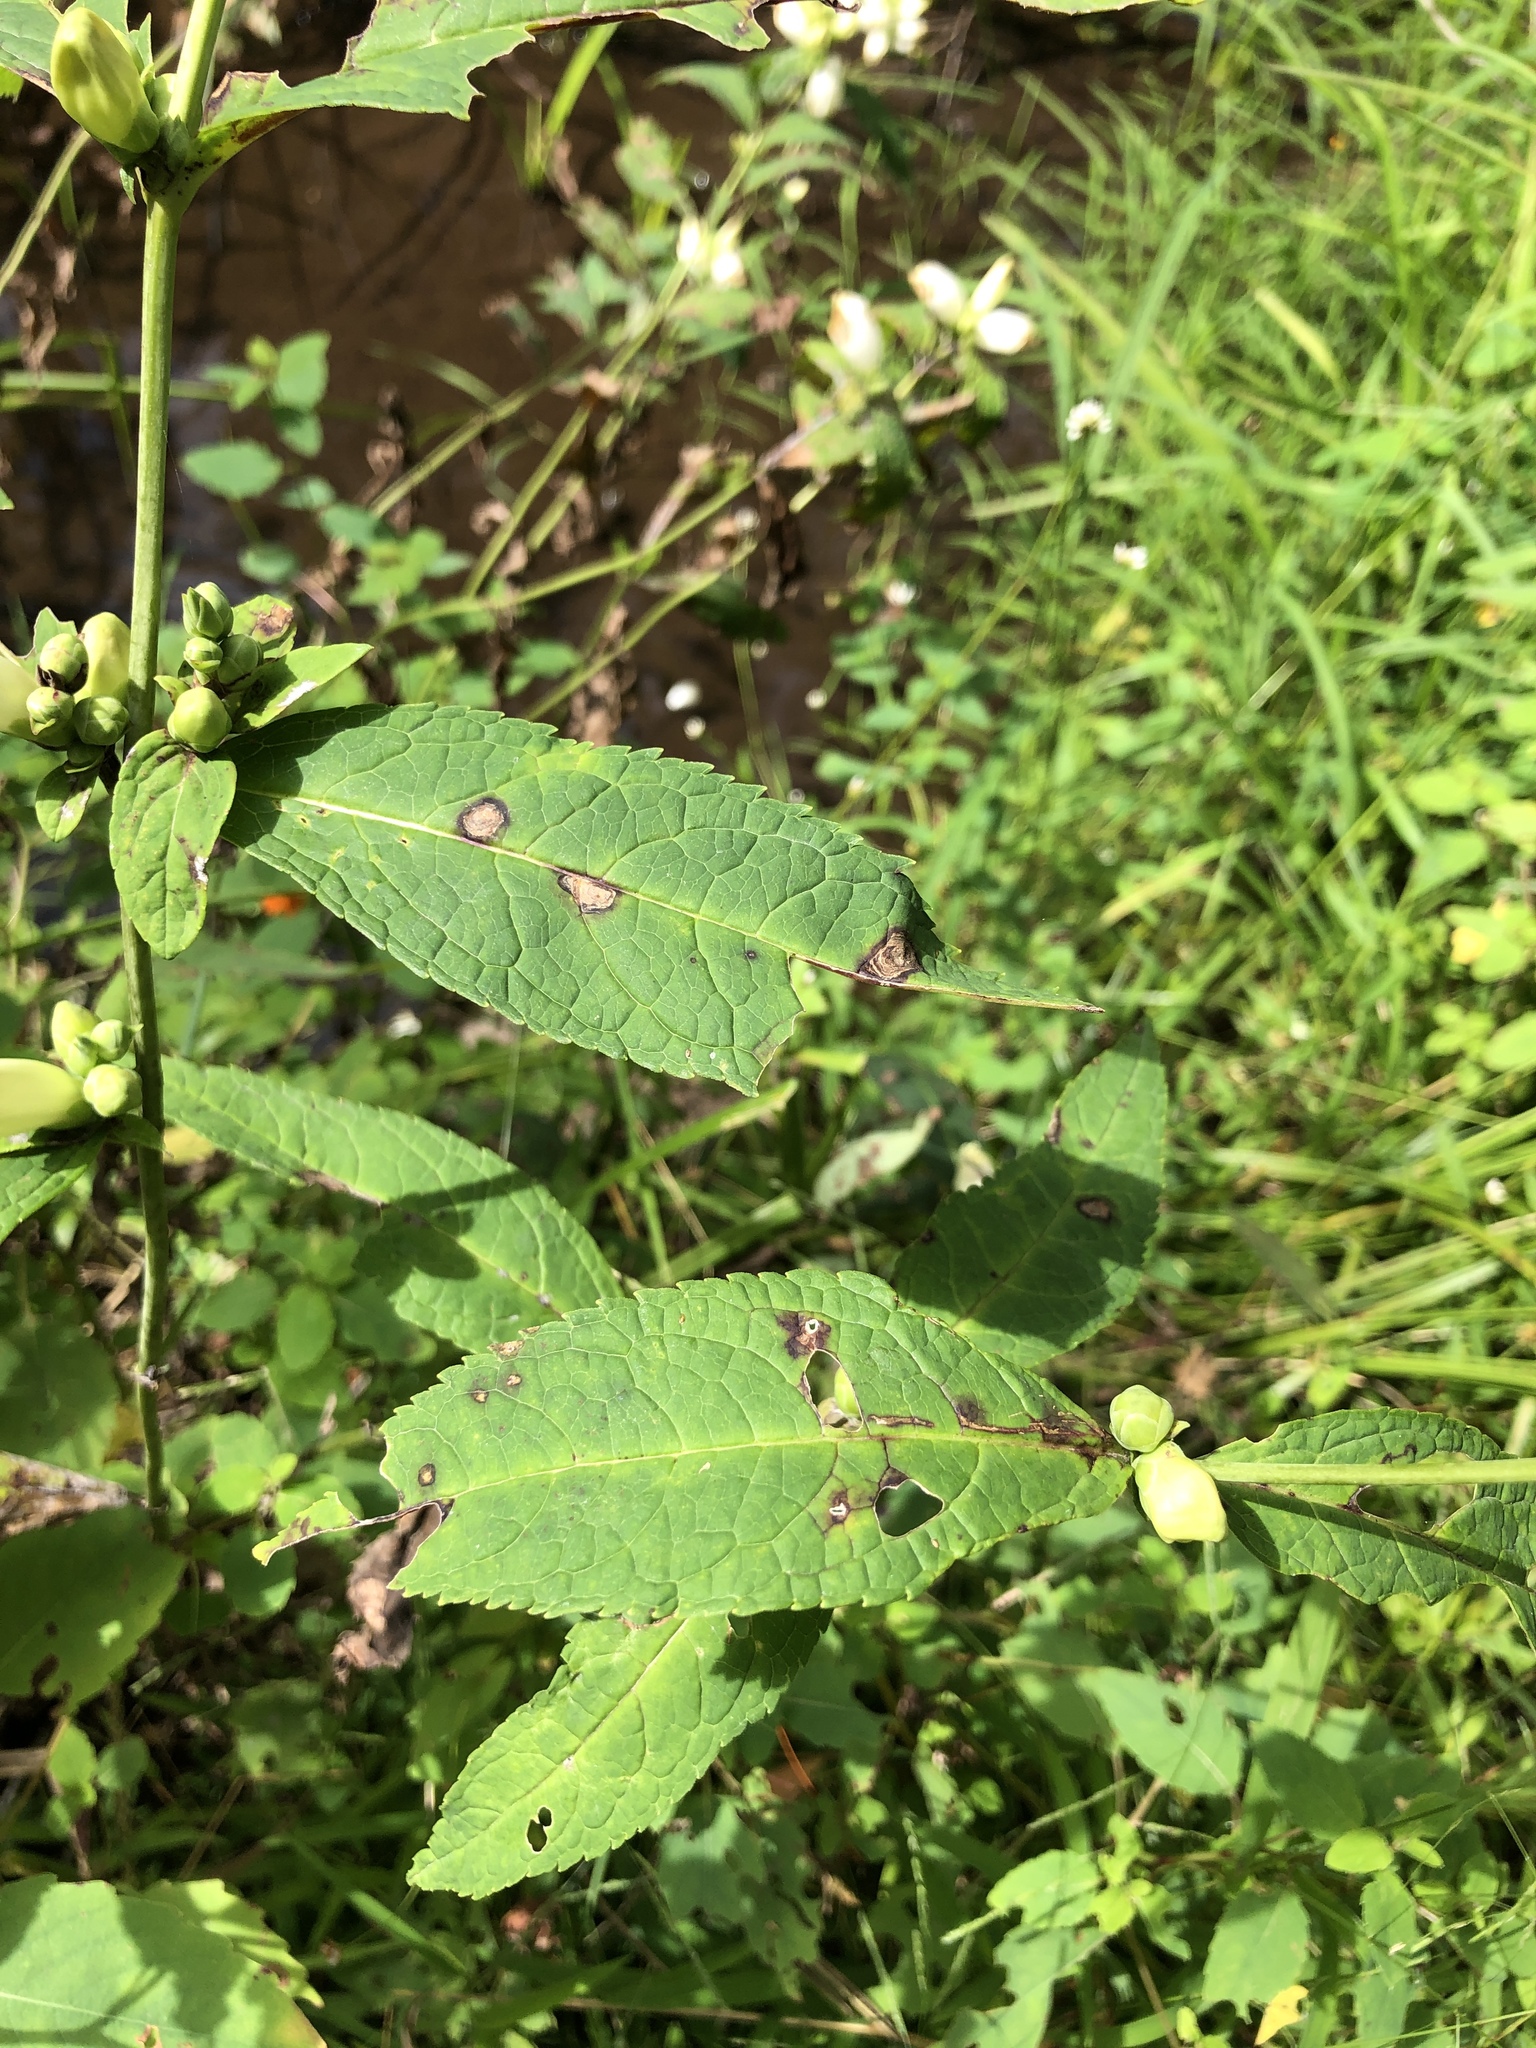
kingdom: Plantae
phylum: Tracheophyta
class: Magnoliopsida
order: Lamiales
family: Plantaginaceae
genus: Chelone
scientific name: Chelone glabra
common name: Snakehead
